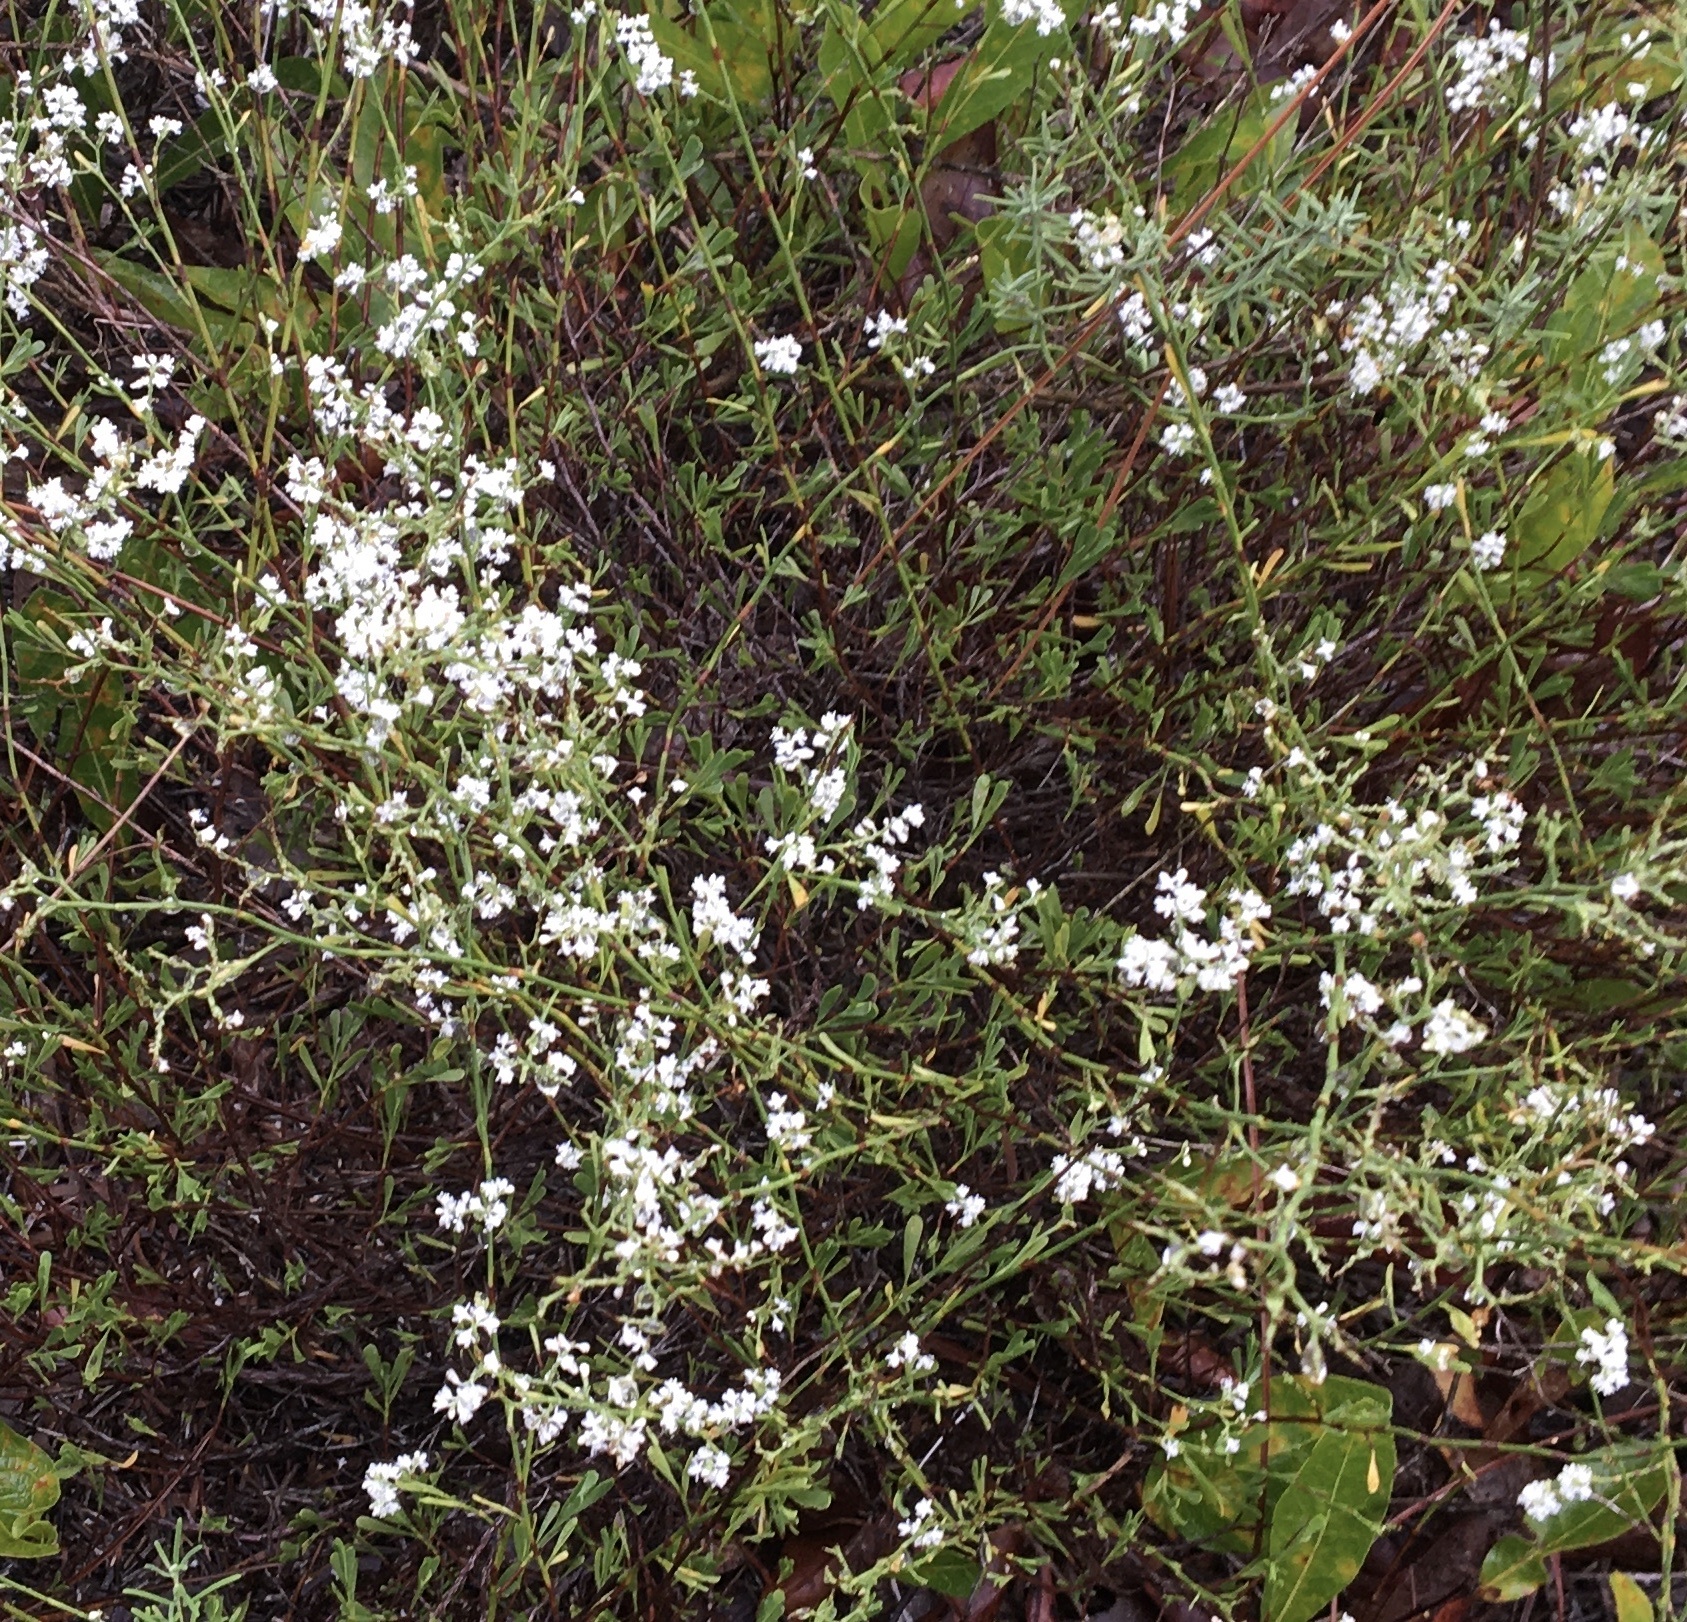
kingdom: Plantae
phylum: Tracheophyta
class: Magnoliopsida
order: Caryophyllales
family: Polygonaceae
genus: Polygonella
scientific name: Polygonella polygama
